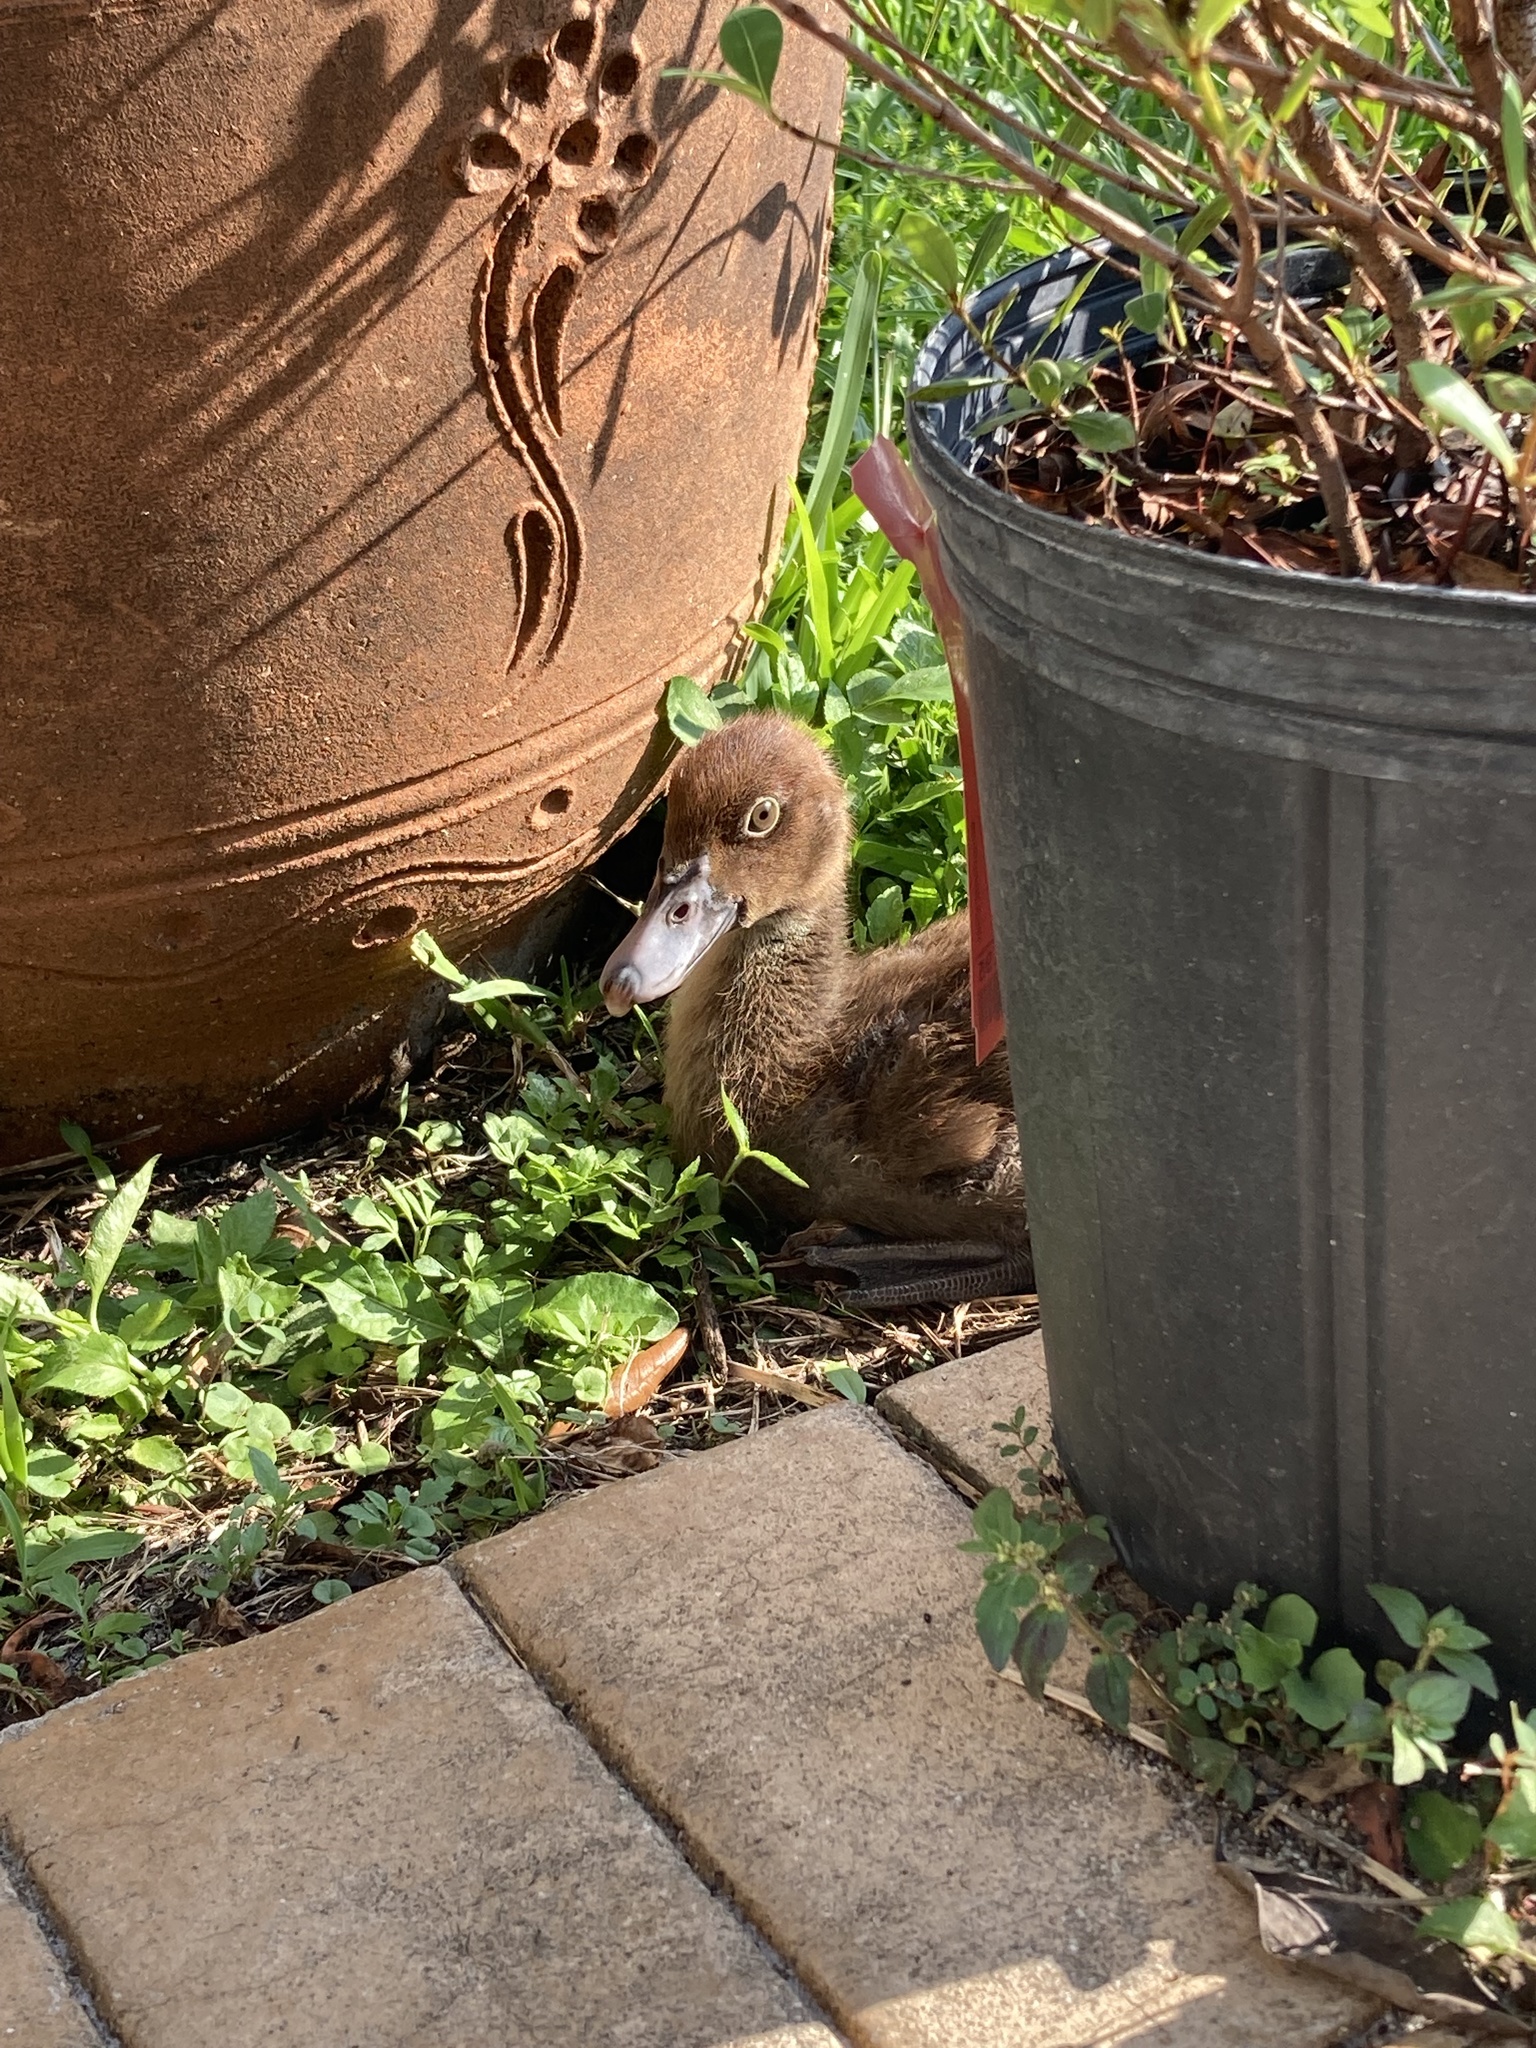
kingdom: Animalia
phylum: Chordata
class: Aves
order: Anseriformes
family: Anatidae
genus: Cairina
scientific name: Cairina moschata
